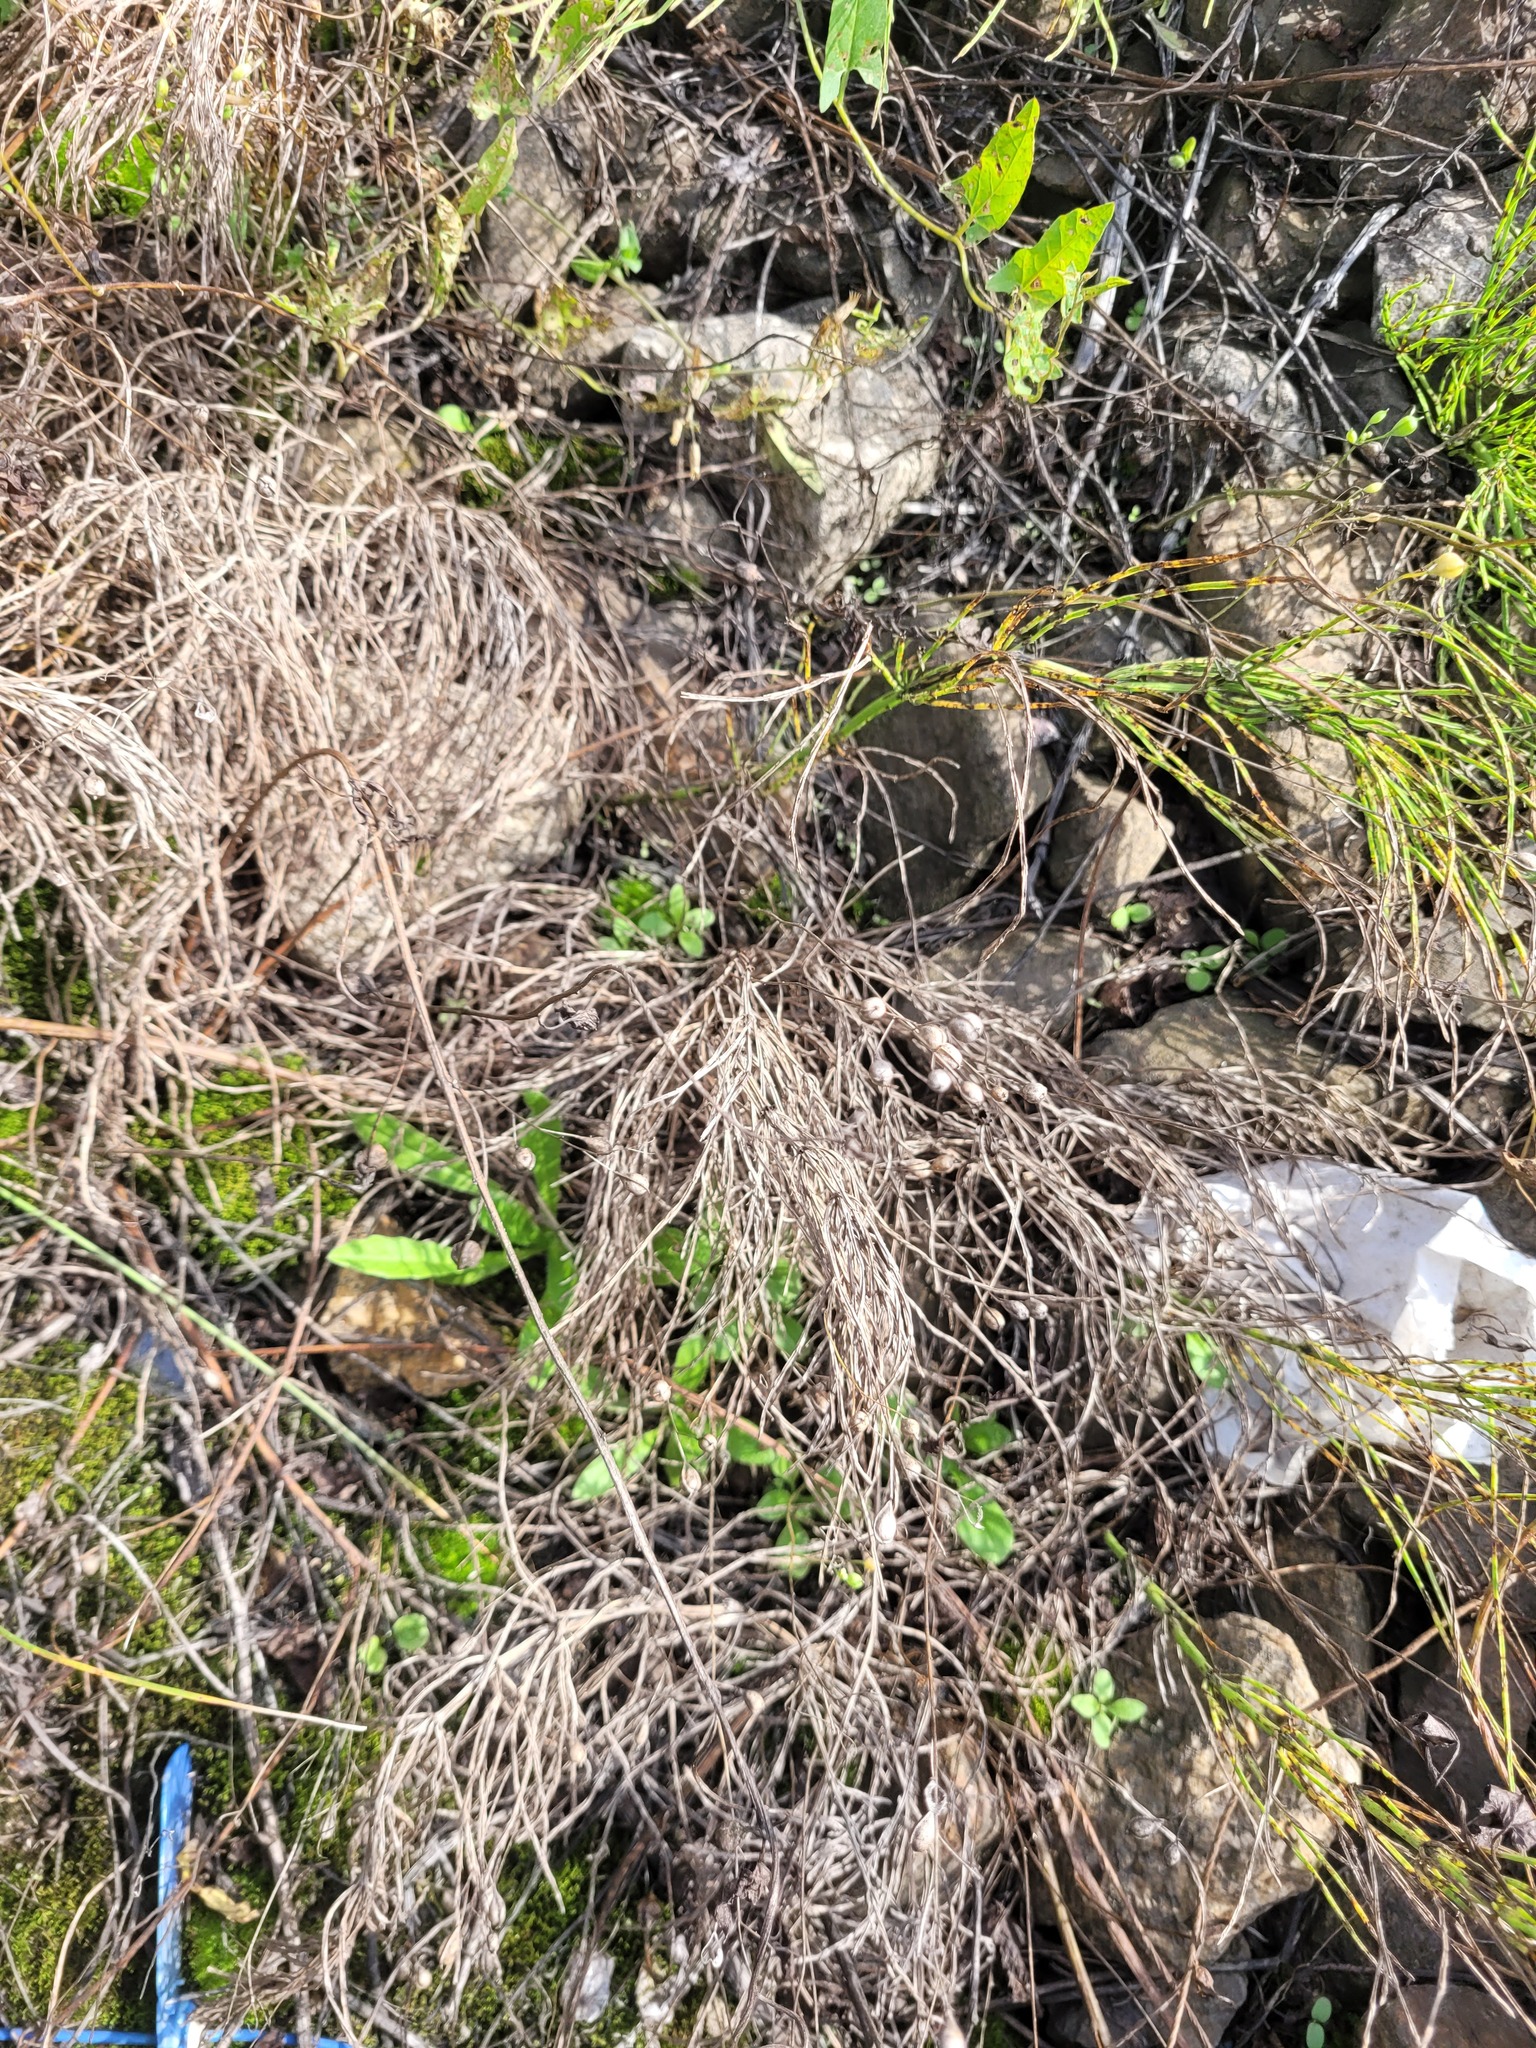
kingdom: Plantae
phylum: Tracheophyta
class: Magnoliopsida
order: Brassicales
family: Brassicaceae
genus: Camelina
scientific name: Camelina sativa
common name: Gold-of-pleasure
